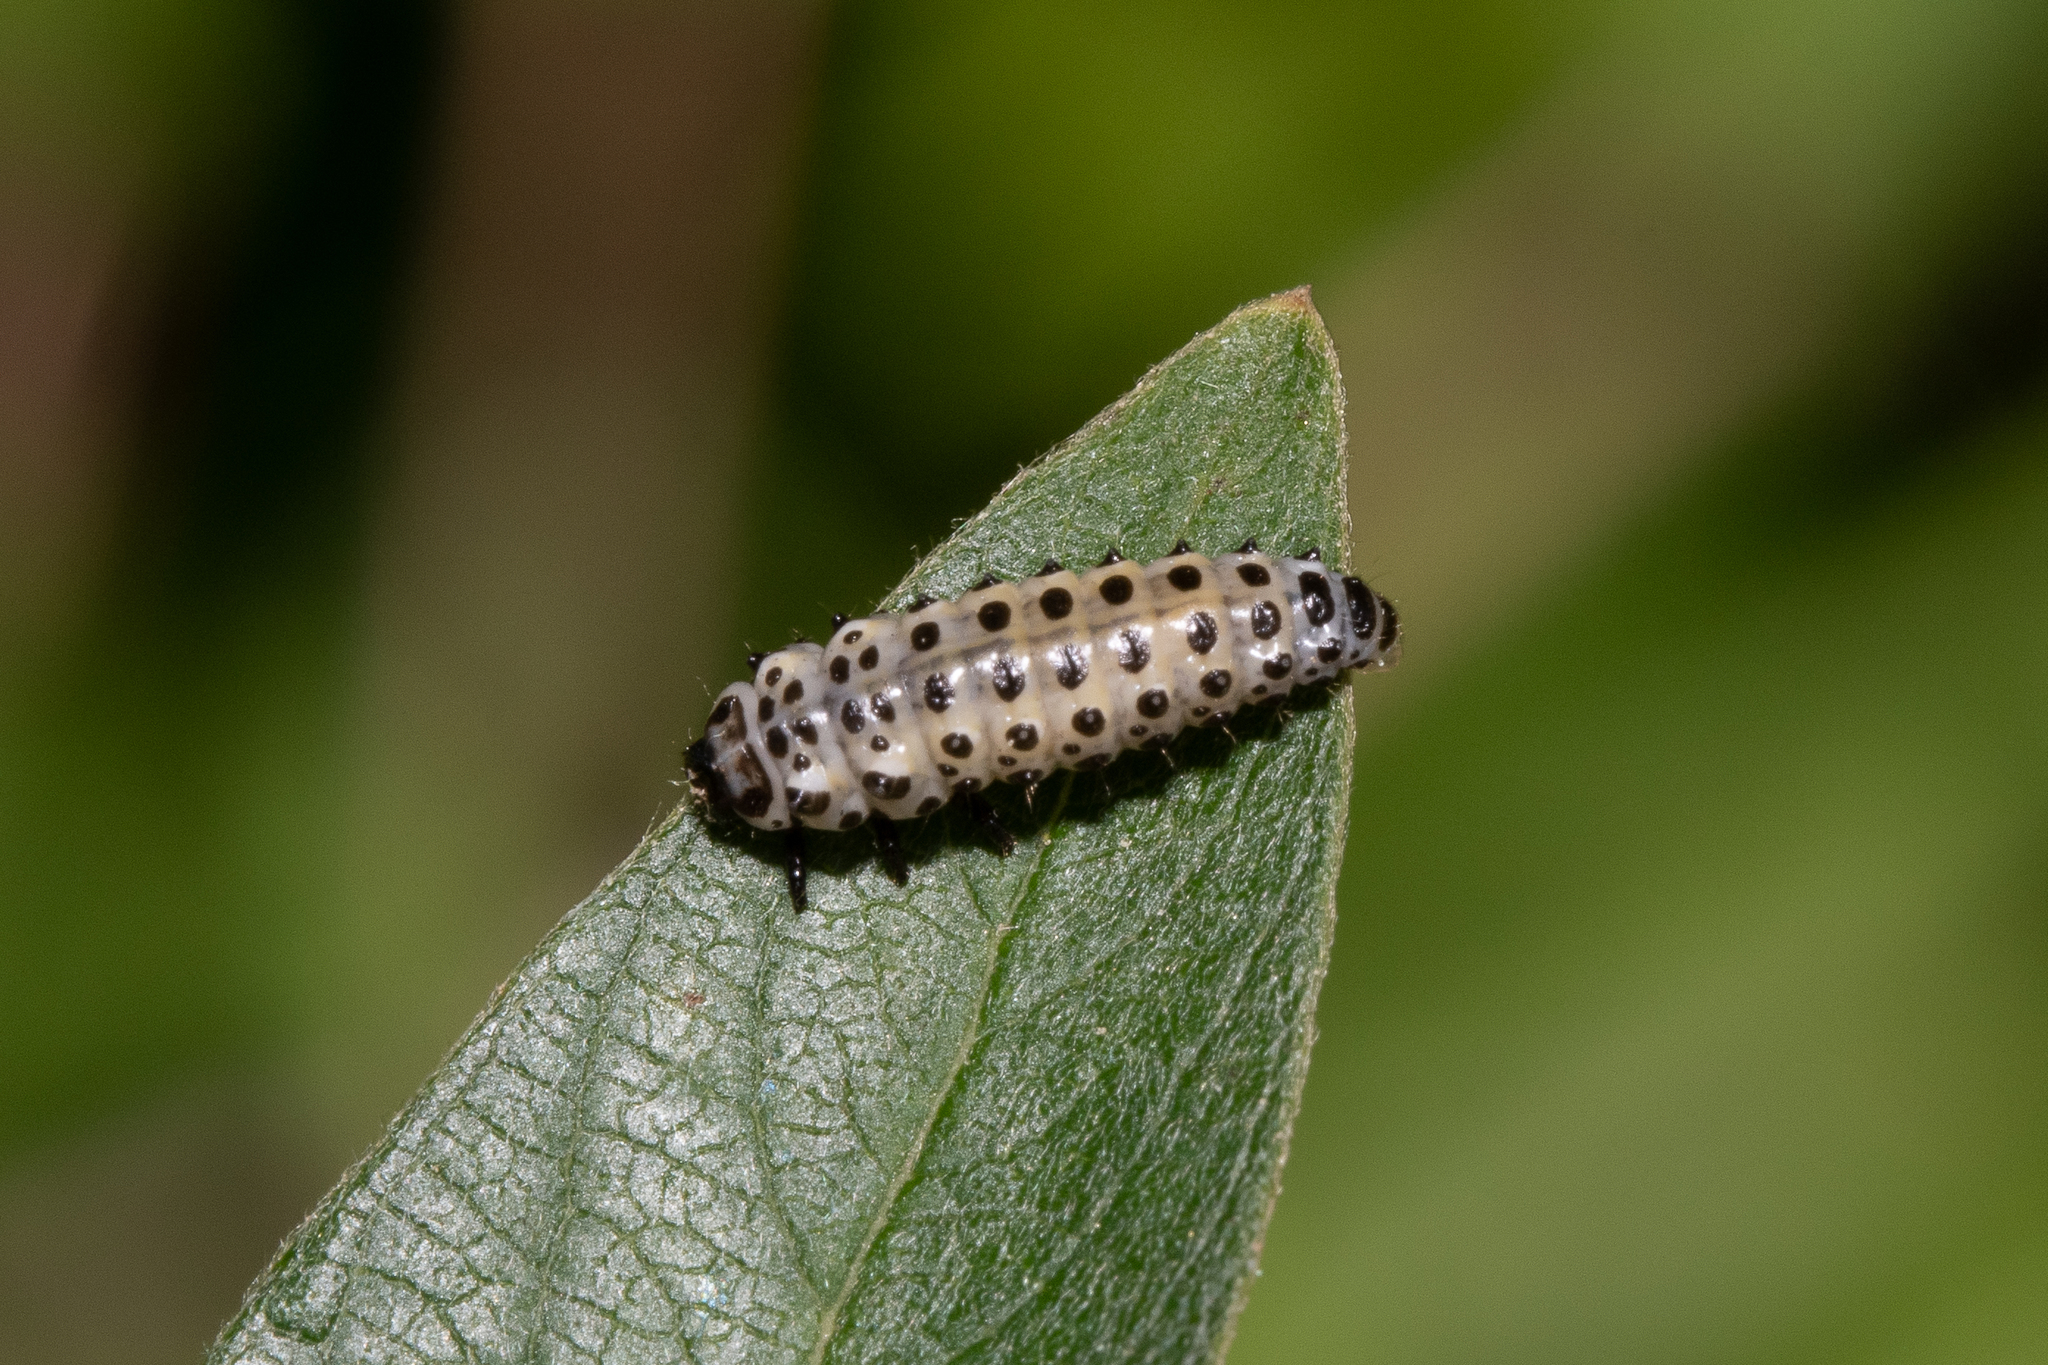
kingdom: Animalia
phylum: Arthropoda
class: Insecta
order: Coleoptera
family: Chrysomelidae
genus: Chrysomela
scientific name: Chrysomela vigintipunctata
